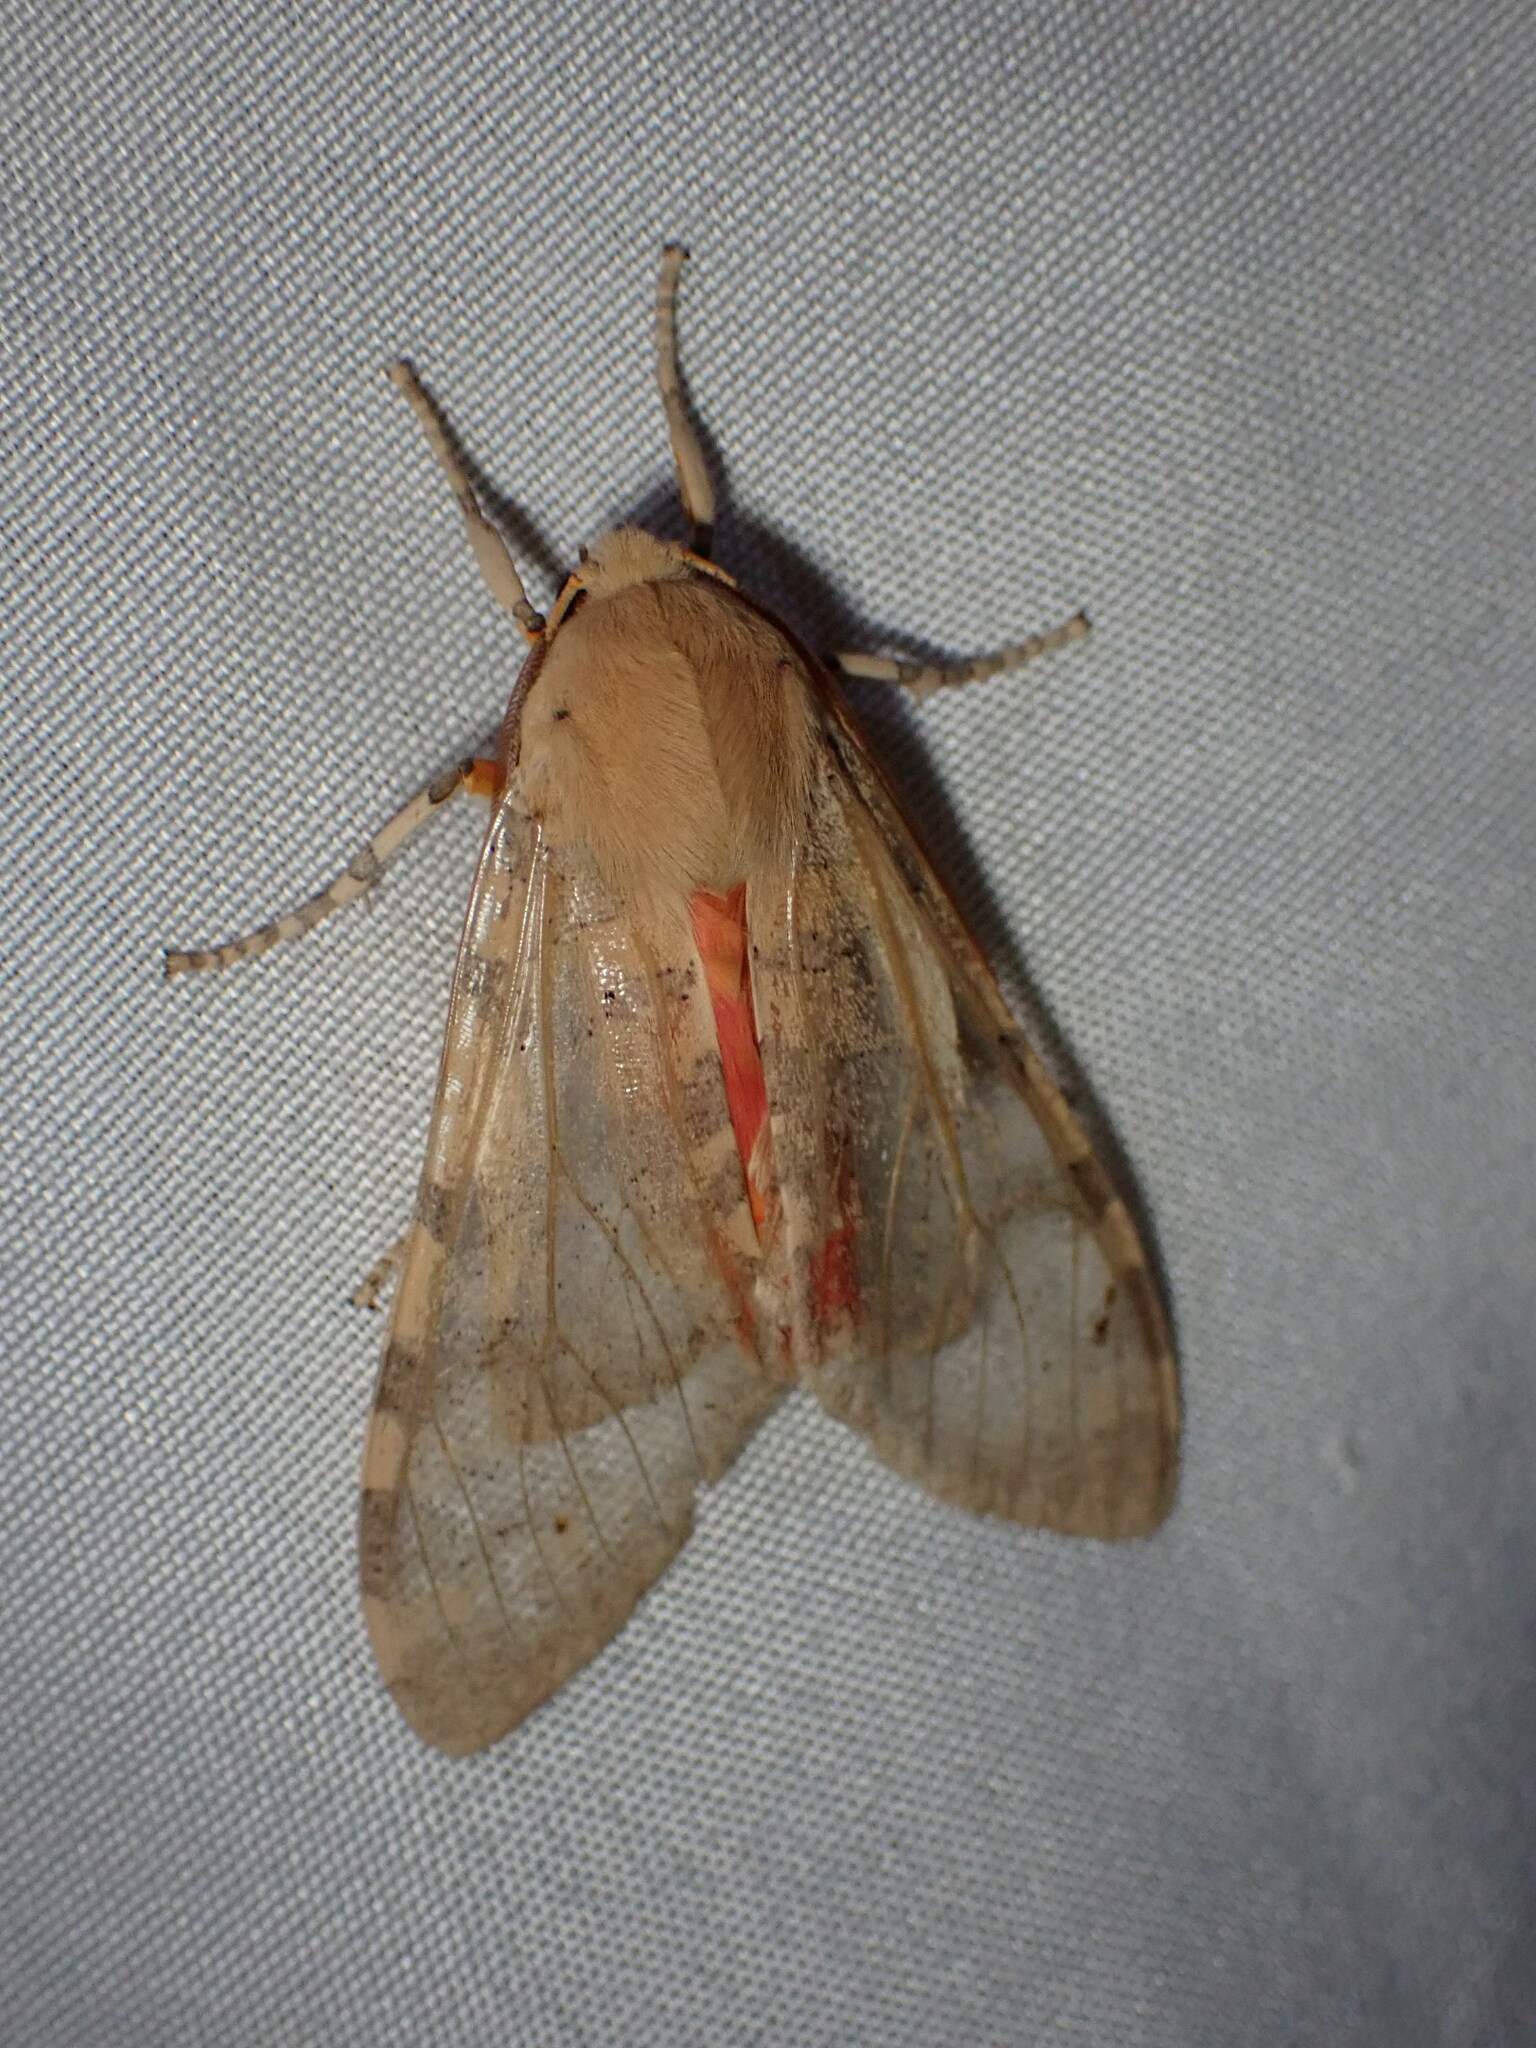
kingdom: Animalia
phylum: Arthropoda
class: Insecta
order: Lepidoptera
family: Erebidae
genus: Hemihyalea
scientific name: Hemihyalea edwardsii
